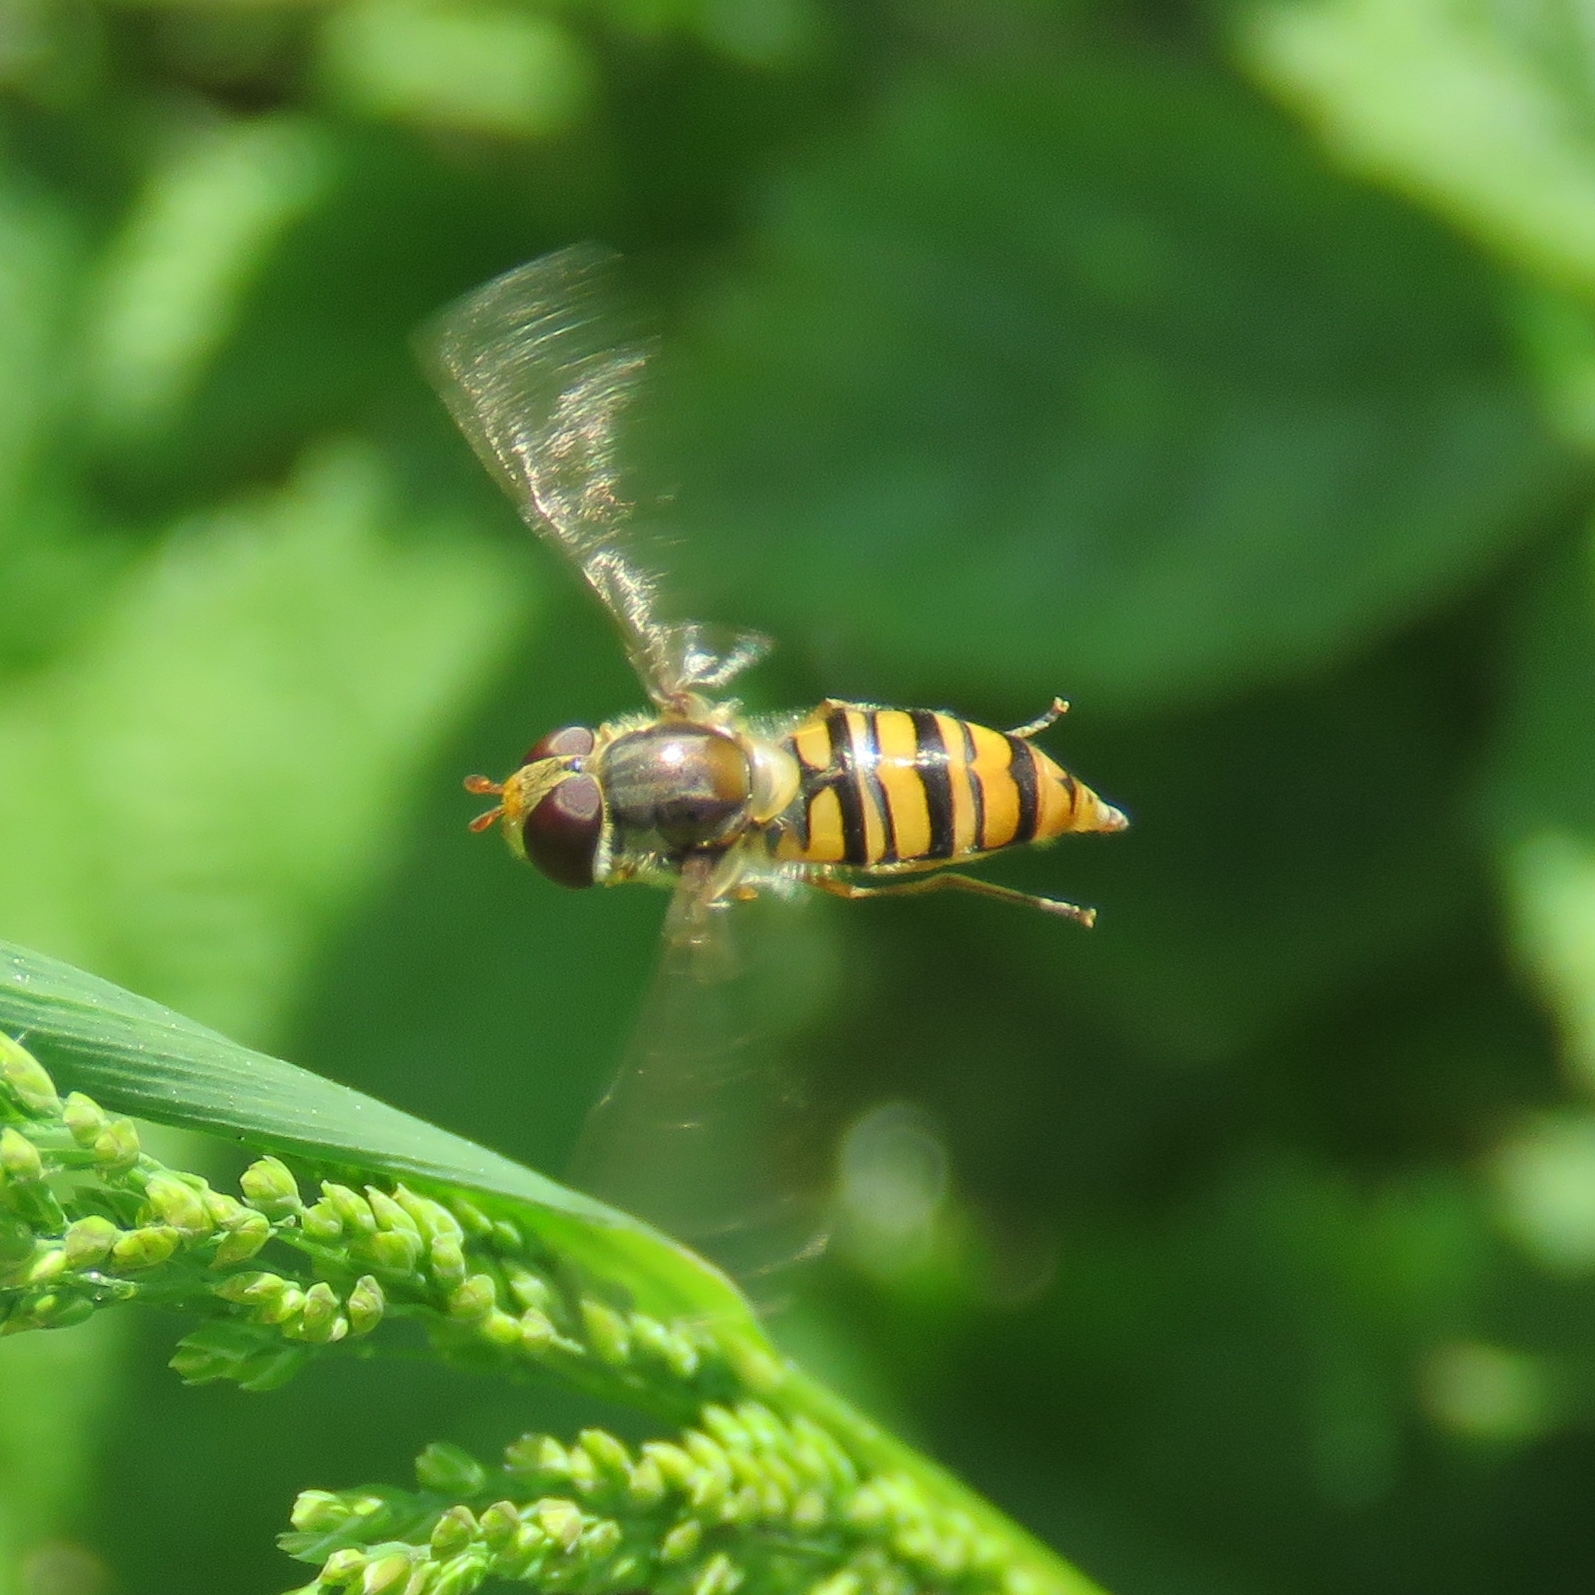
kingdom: Animalia
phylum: Arthropoda
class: Insecta
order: Diptera
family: Syrphidae
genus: Episyrphus
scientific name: Episyrphus balteatus
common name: Marmalade hoverfly
